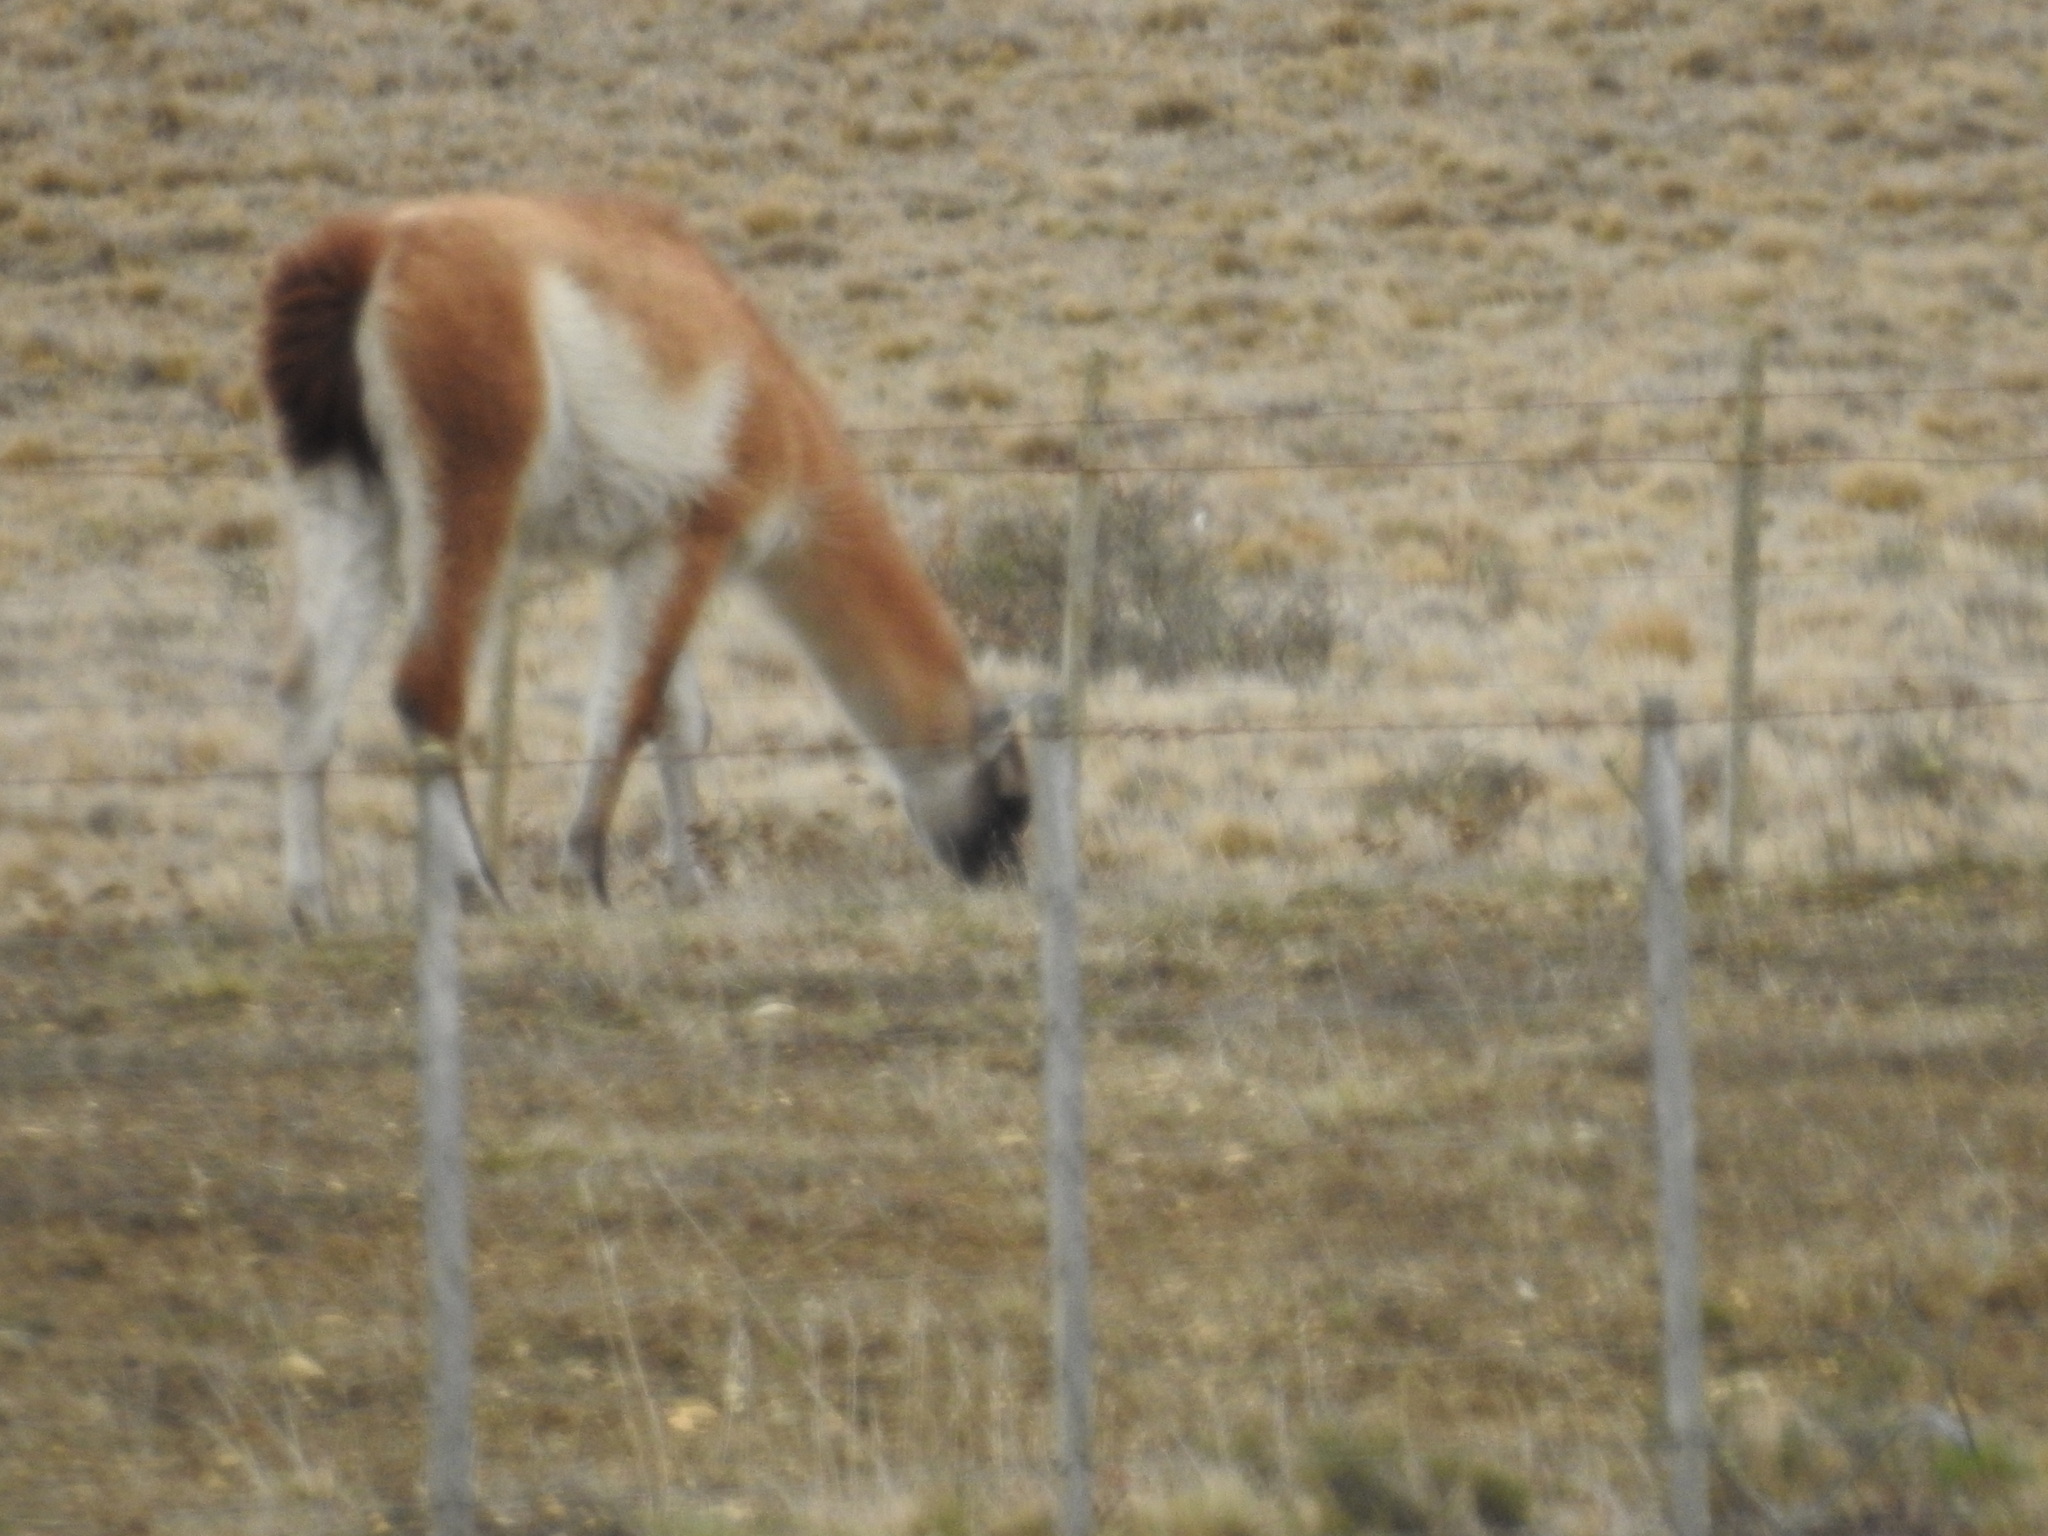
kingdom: Animalia
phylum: Chordata
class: Mammalia
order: Artiodactyla
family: Camelidae
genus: Lama
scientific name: Lama glama
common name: Llama
